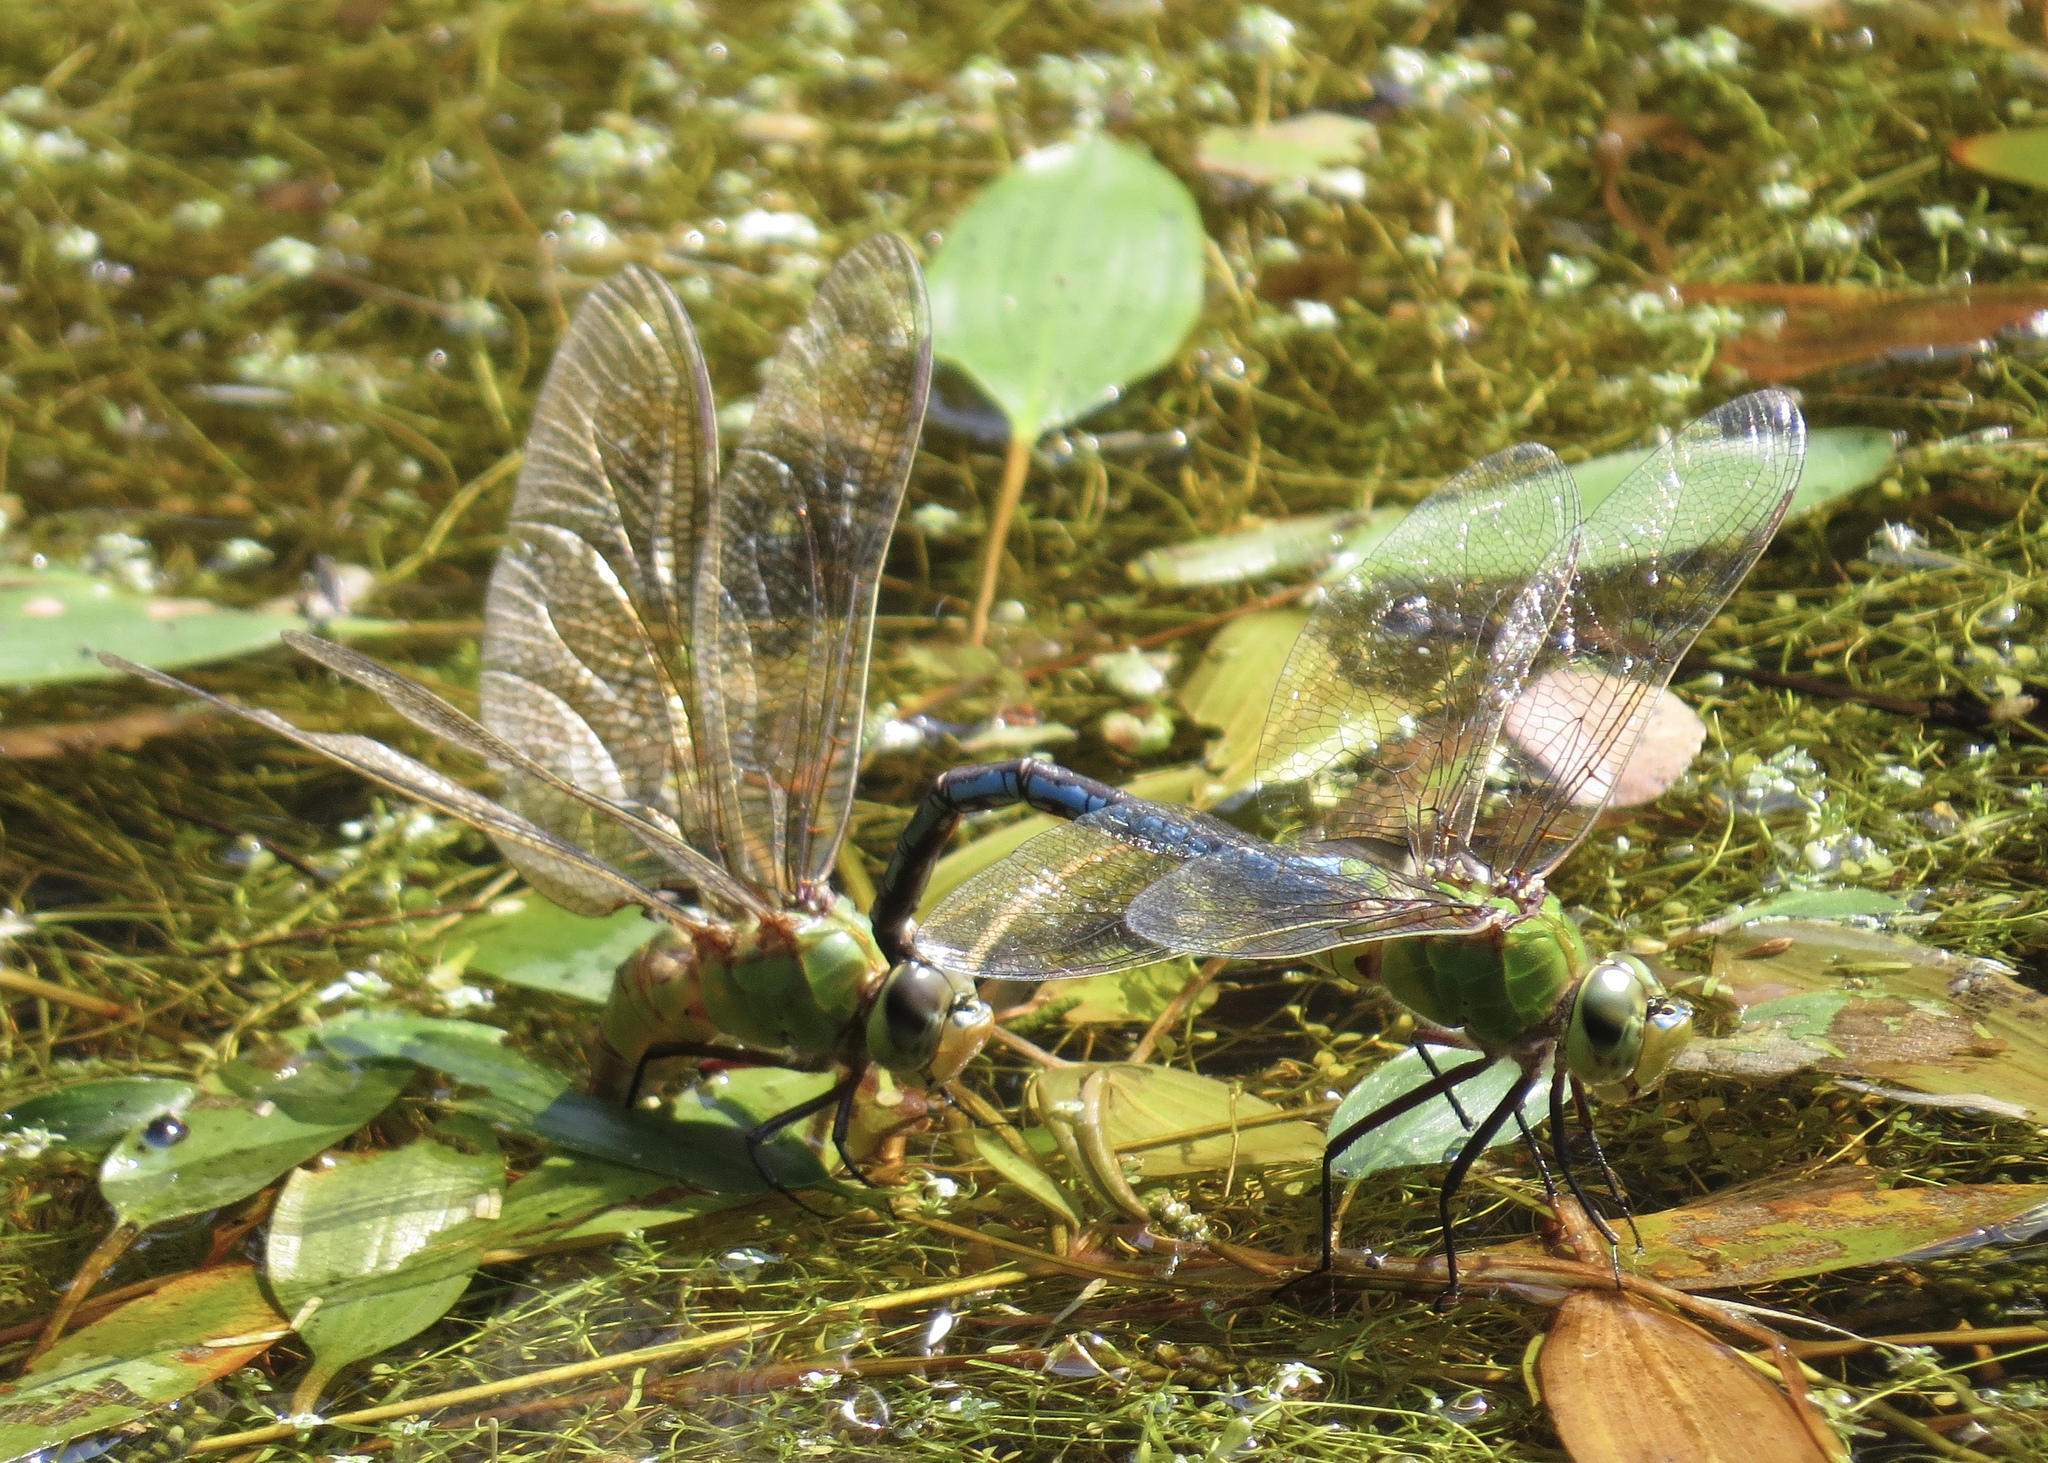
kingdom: Animalia
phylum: Arthropoda
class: Insecta
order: Odonata
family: Aeshnidae
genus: Anax
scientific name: Anax junius
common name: Common green darner
